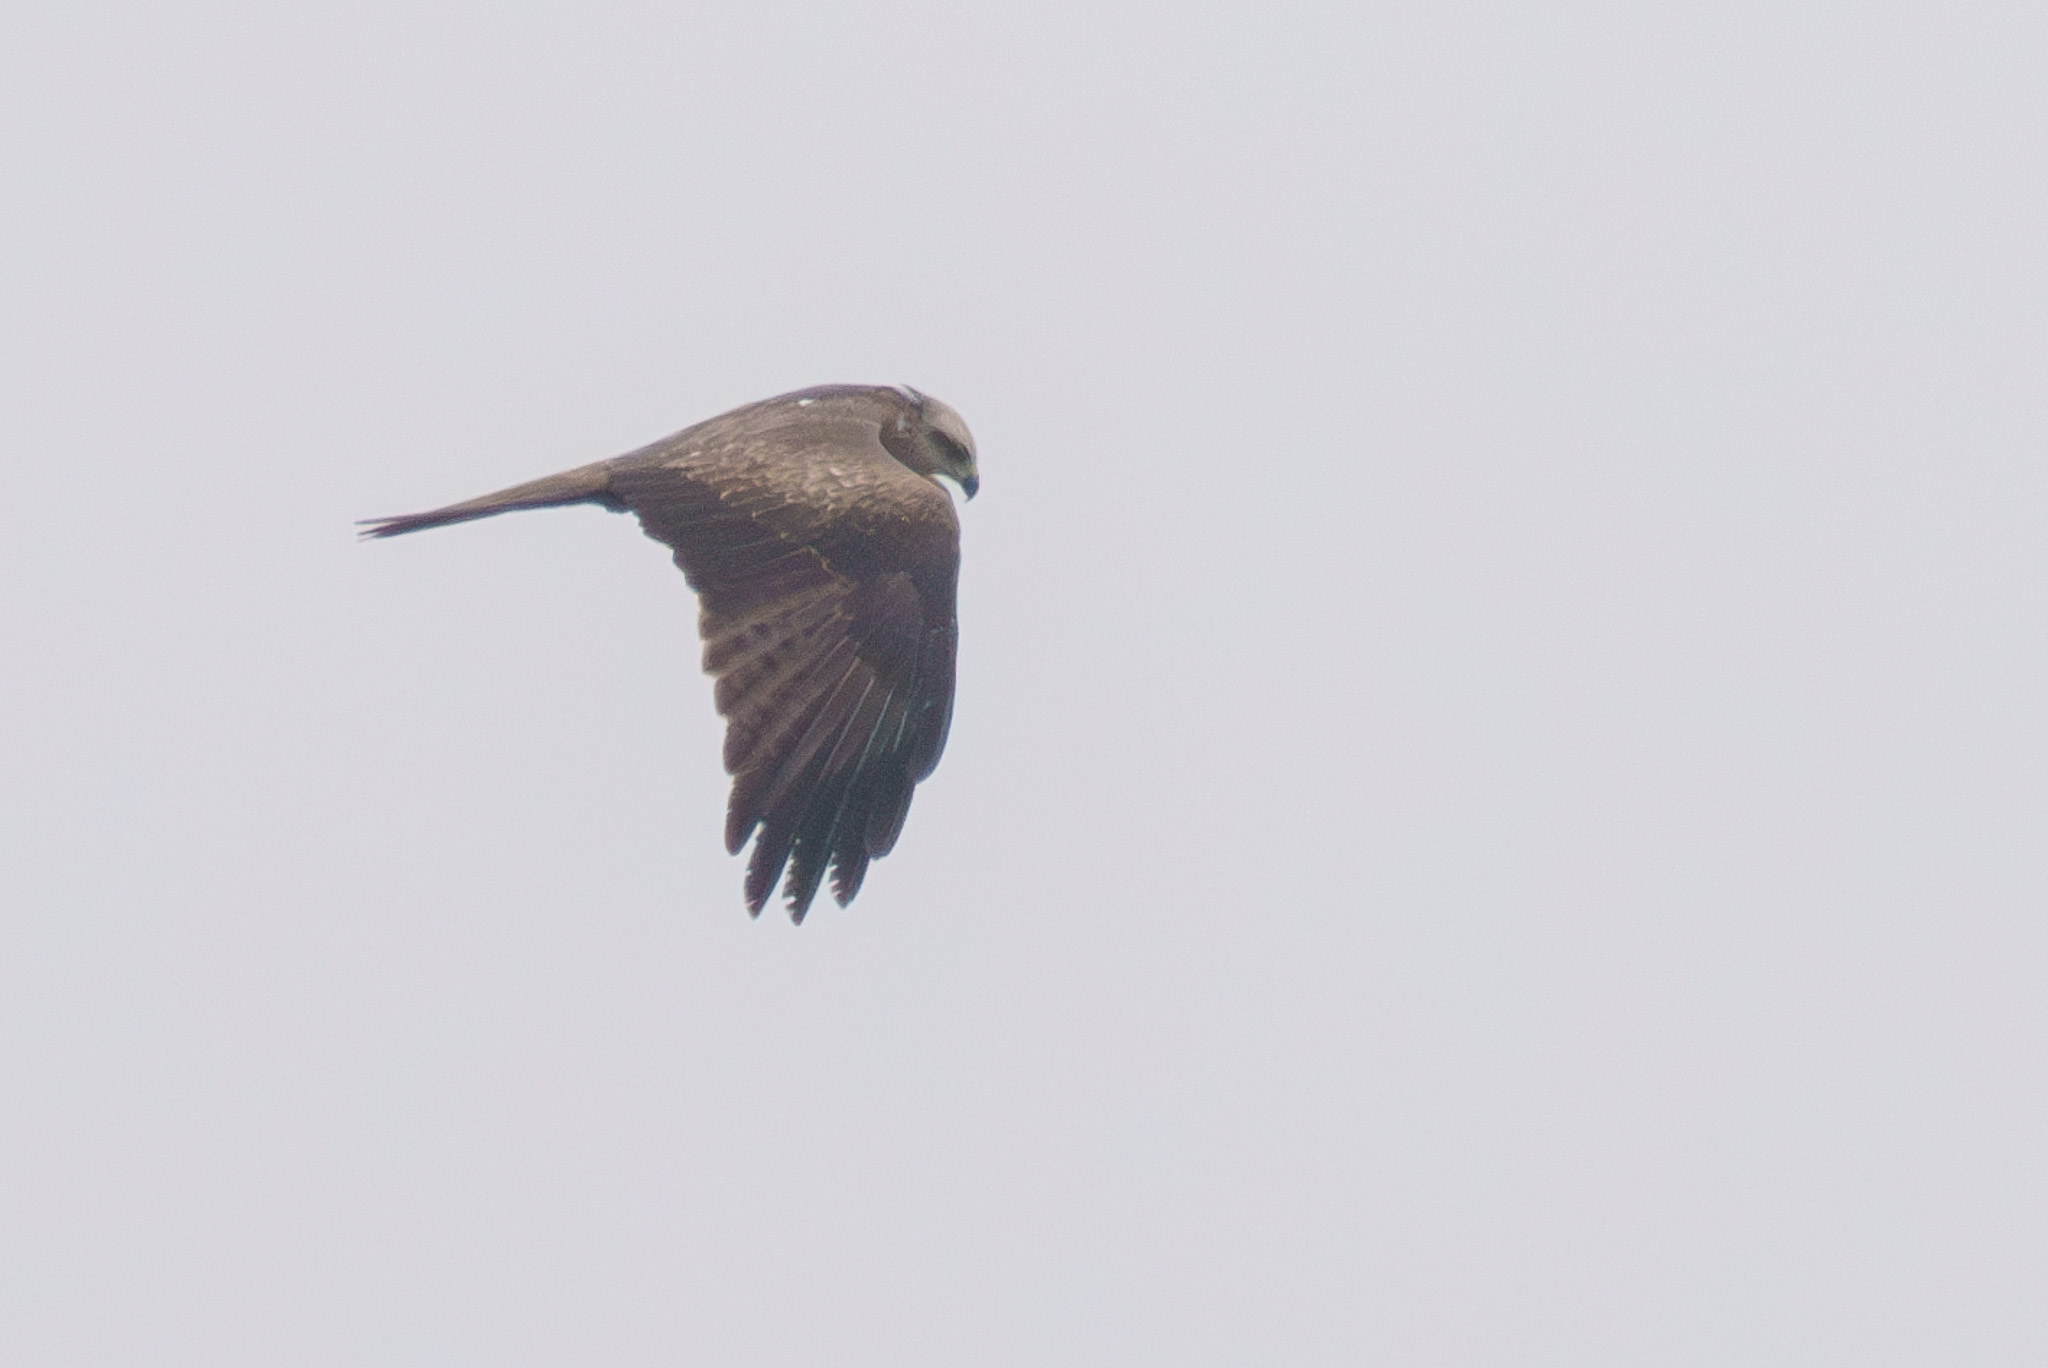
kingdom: Animalia
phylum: Chordata
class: Aves
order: Accipitriformes
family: Accipitridae
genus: Milvus
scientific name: Milvus migrans
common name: Black kite
